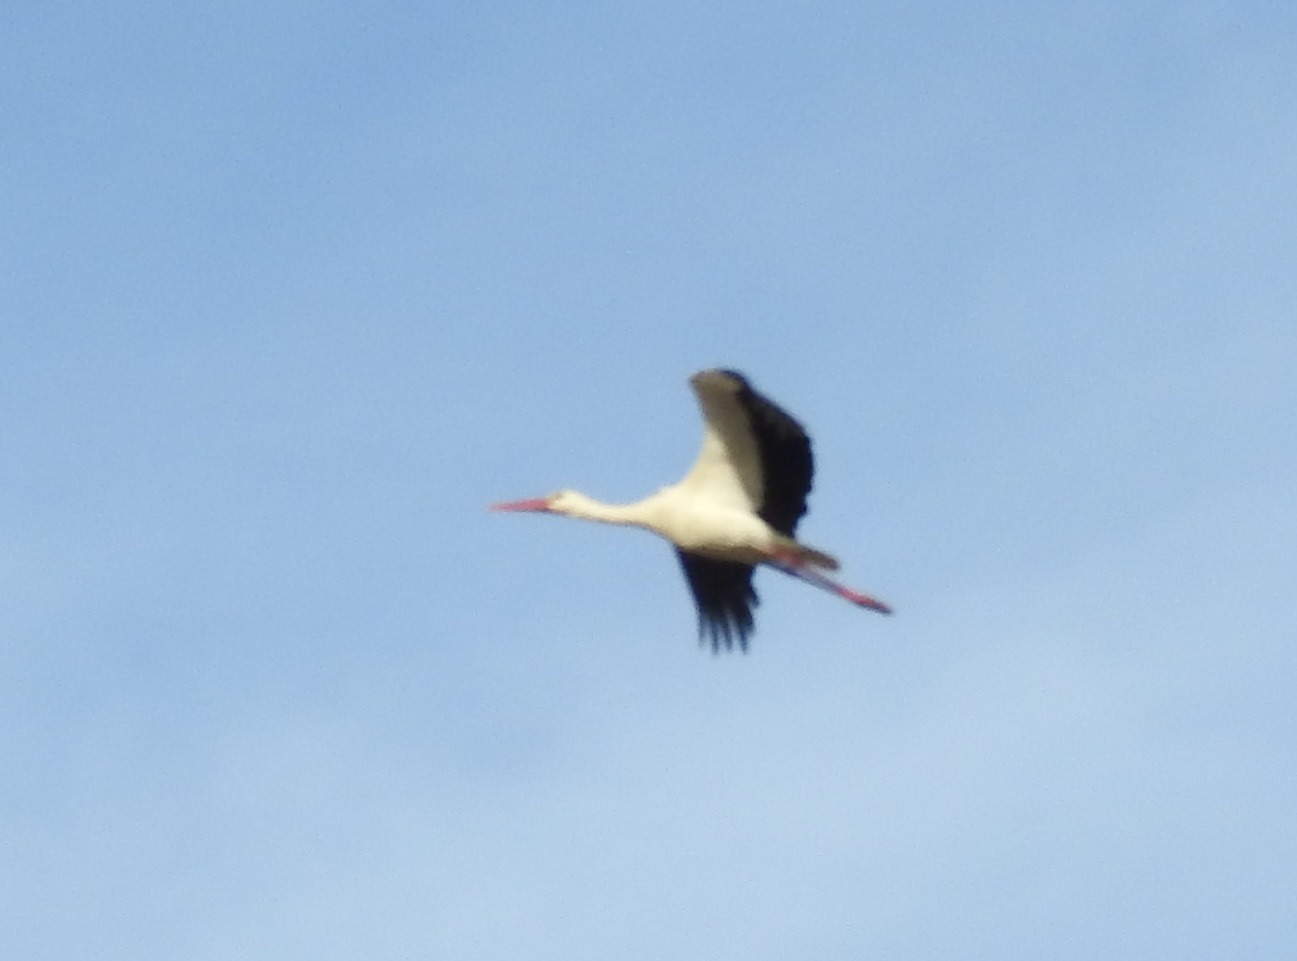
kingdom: Animalia
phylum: Chordata
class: Aves
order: Ciconiiformes
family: Ciconiidae
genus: Ciconia
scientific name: Ciconia ciconia
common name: White stork
